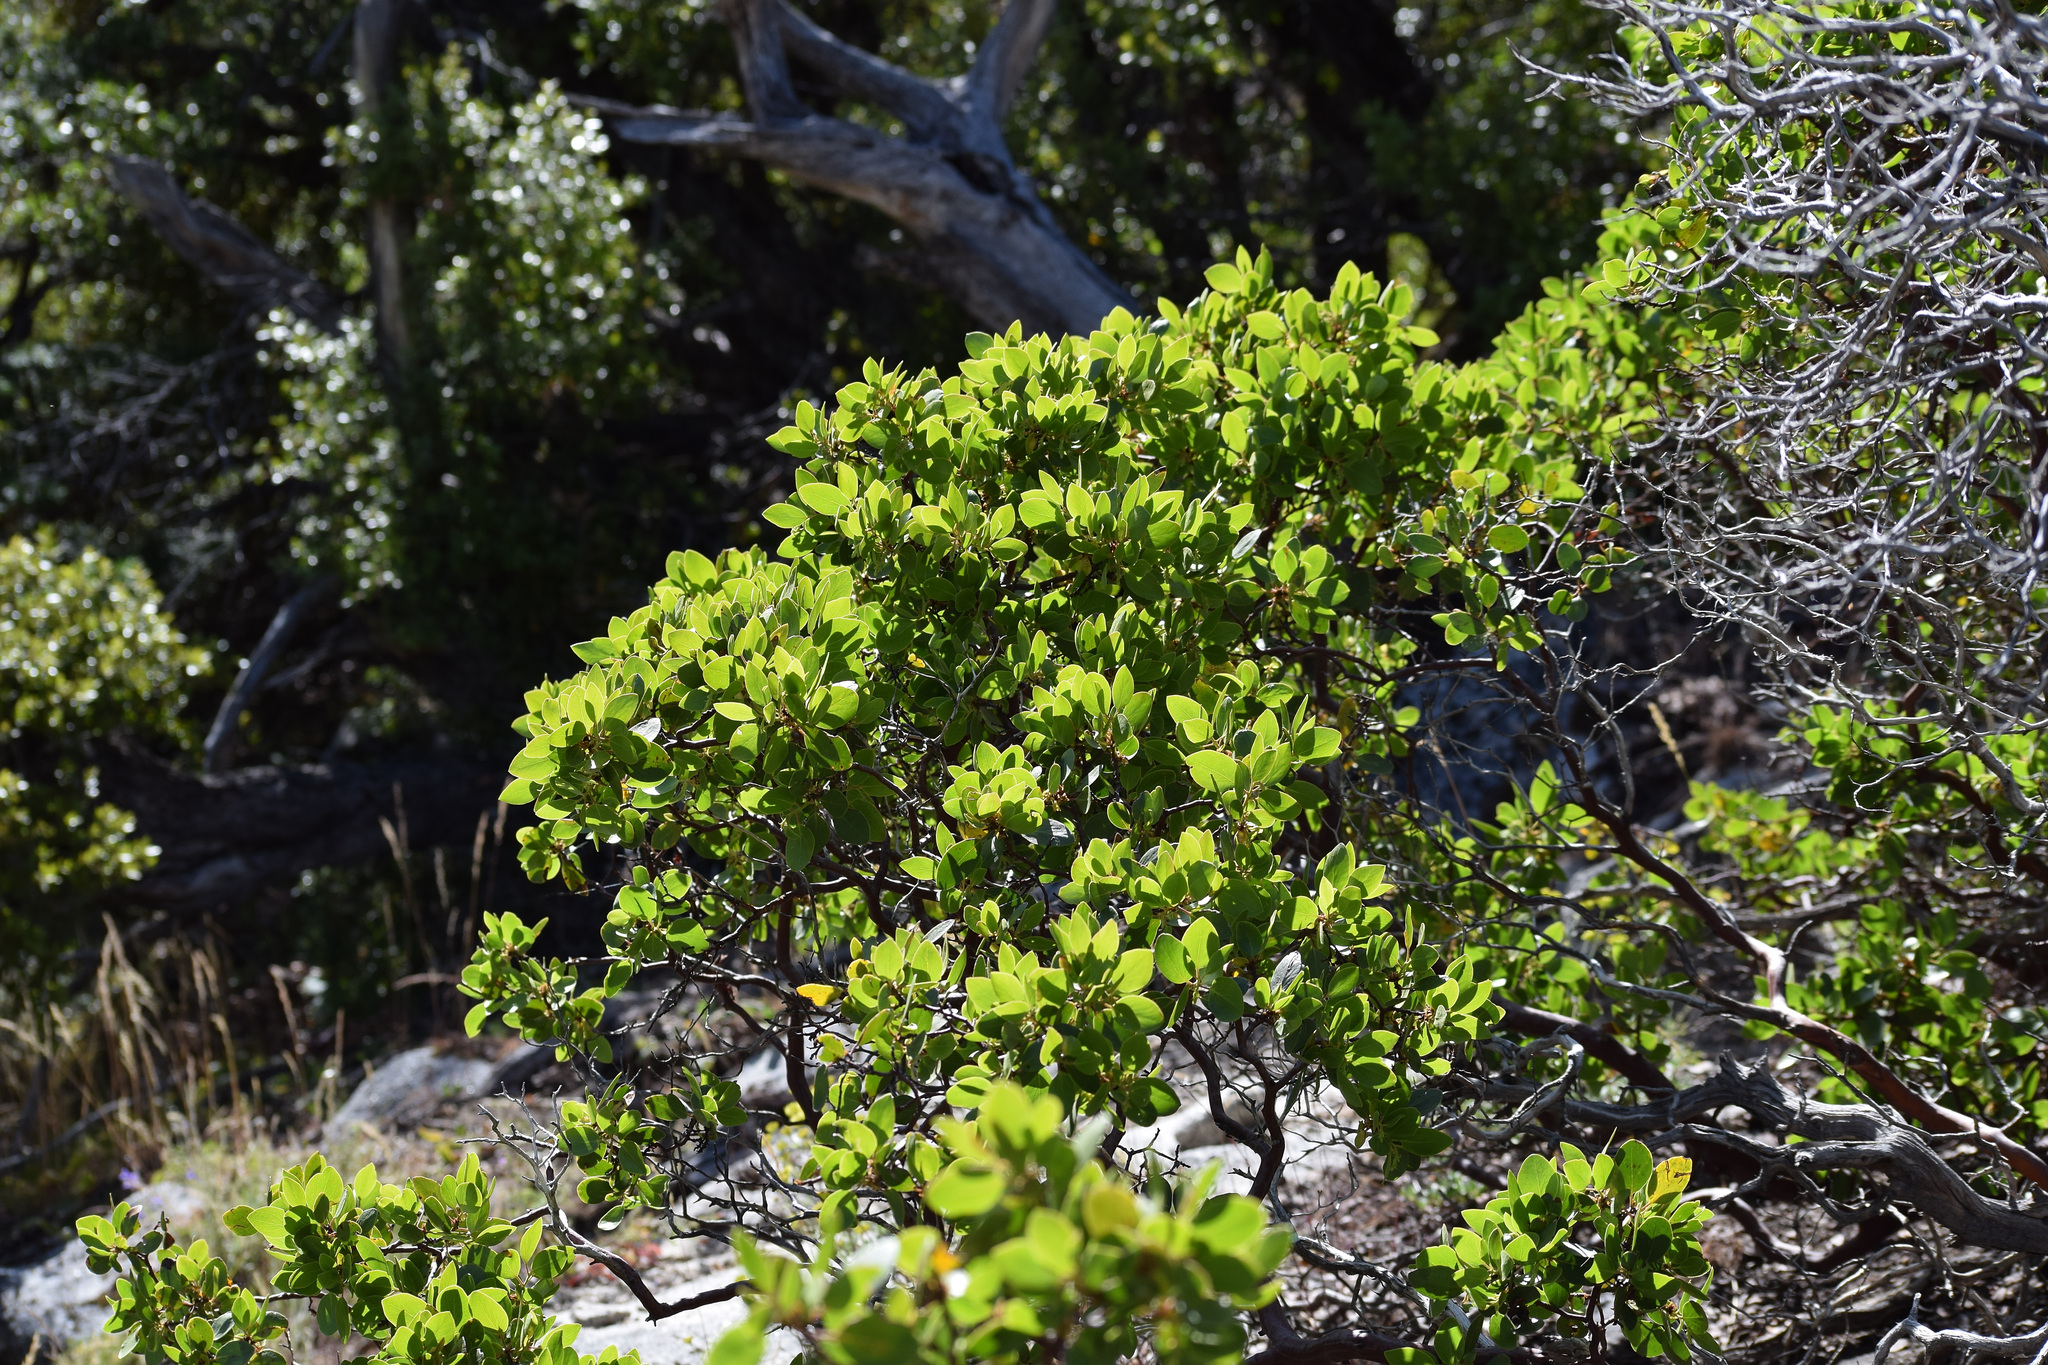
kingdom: Plantae
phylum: Tracheophyta
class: Magnoliopsida
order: Ericales
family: Ericaceae
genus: Arctostaphylos
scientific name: Arctostaphylos patula
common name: Green-leaf manzanita
